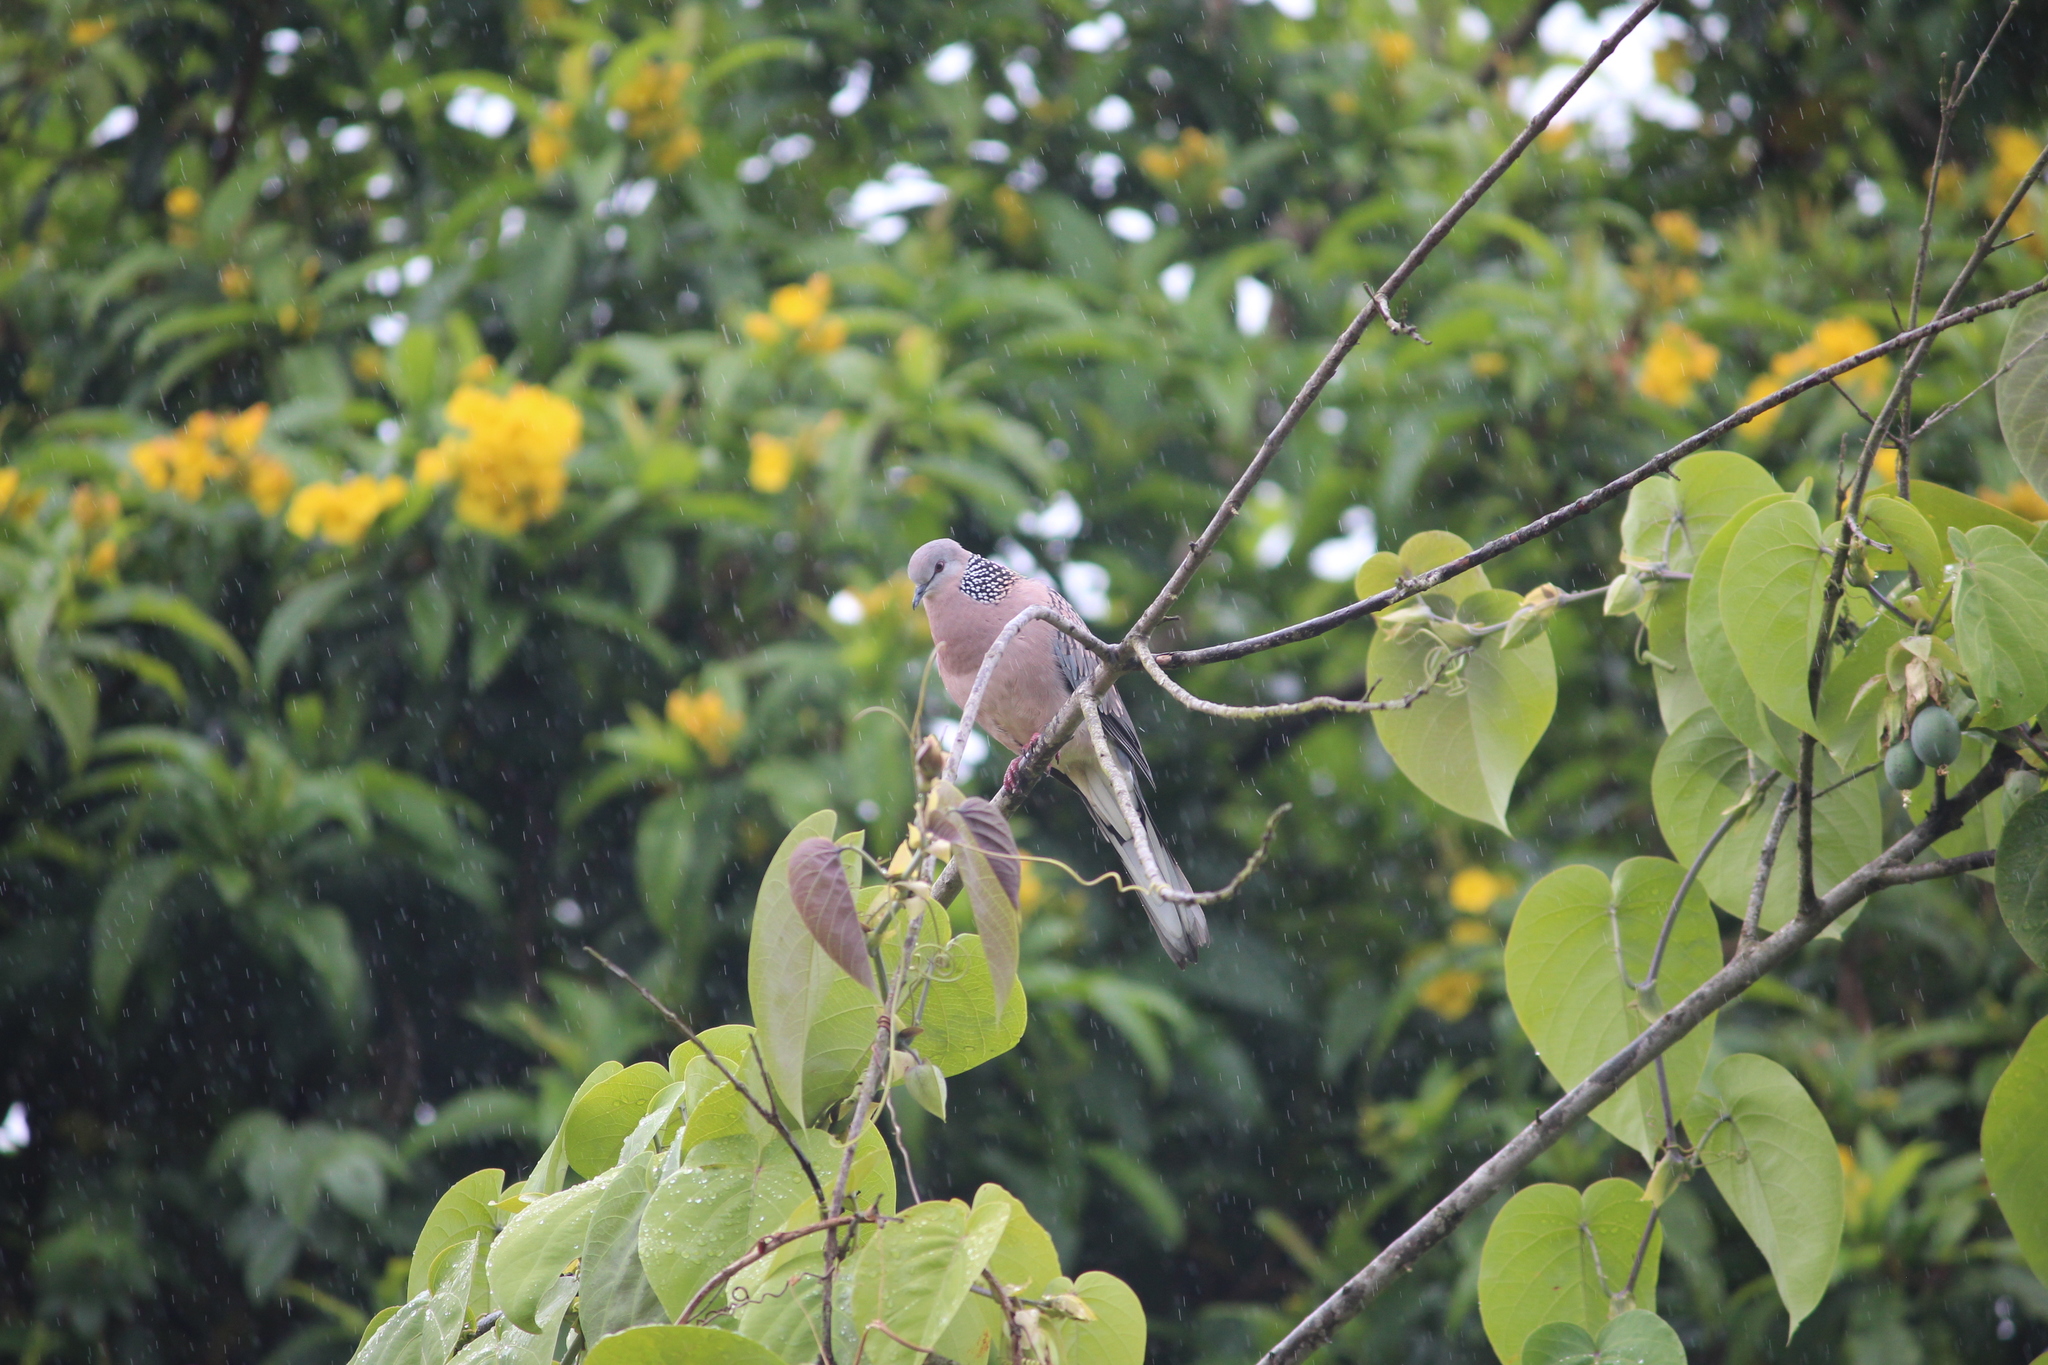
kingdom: Animalia
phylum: Chordata
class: Aves
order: Columbiformes
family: Columbidae
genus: Spilopelia
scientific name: Spilopelia chinensis
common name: Spotted dove
